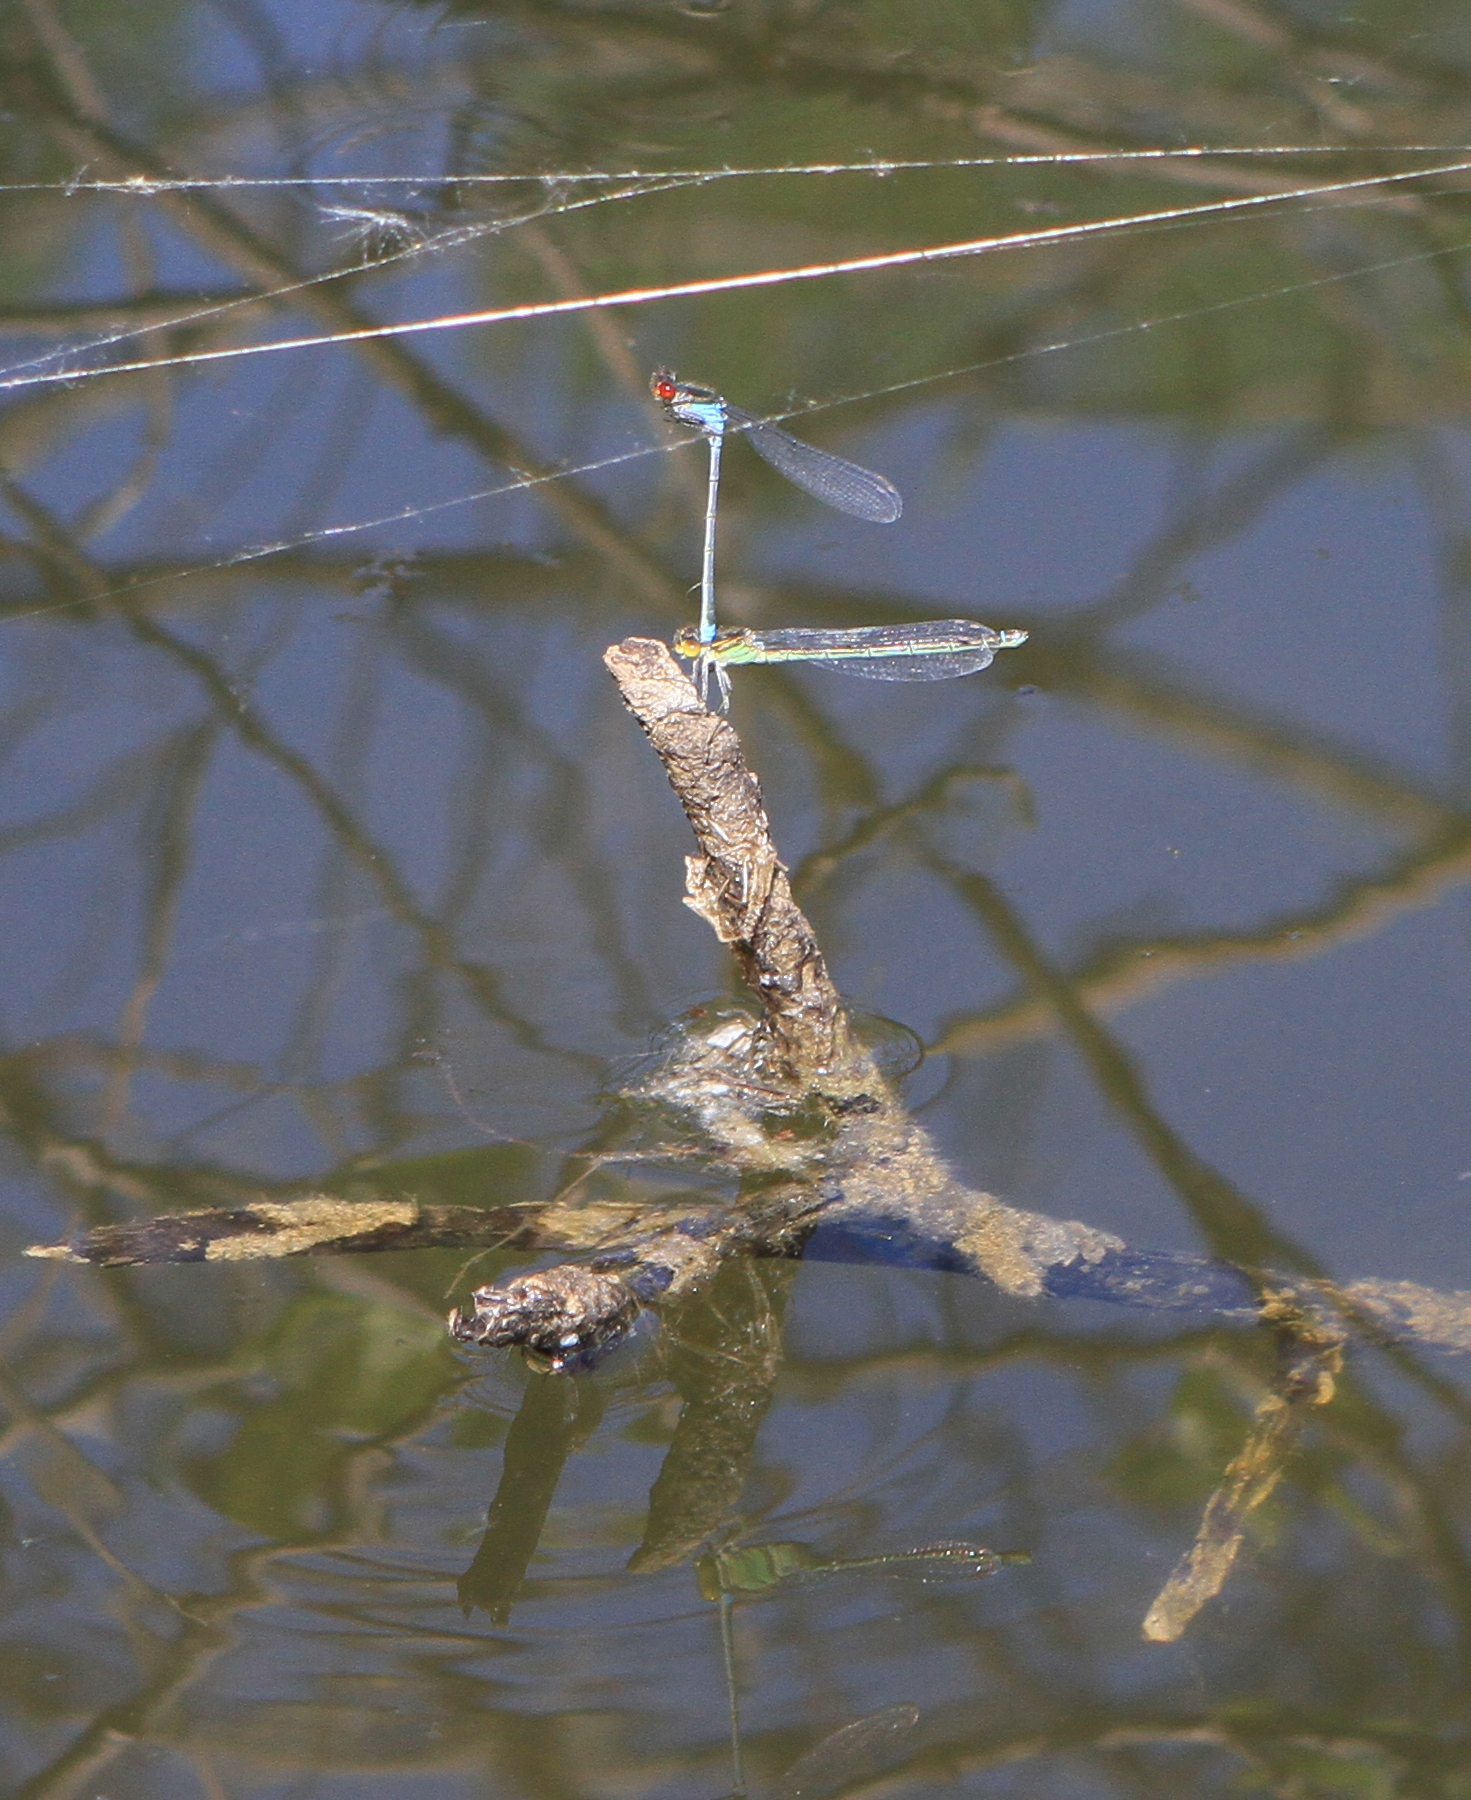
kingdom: Animalia
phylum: Arthropoda
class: Insecta
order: Odonata
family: Coenagrionidae
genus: Erythromma
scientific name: Erythromma najas
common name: Red-eyed damselfly
